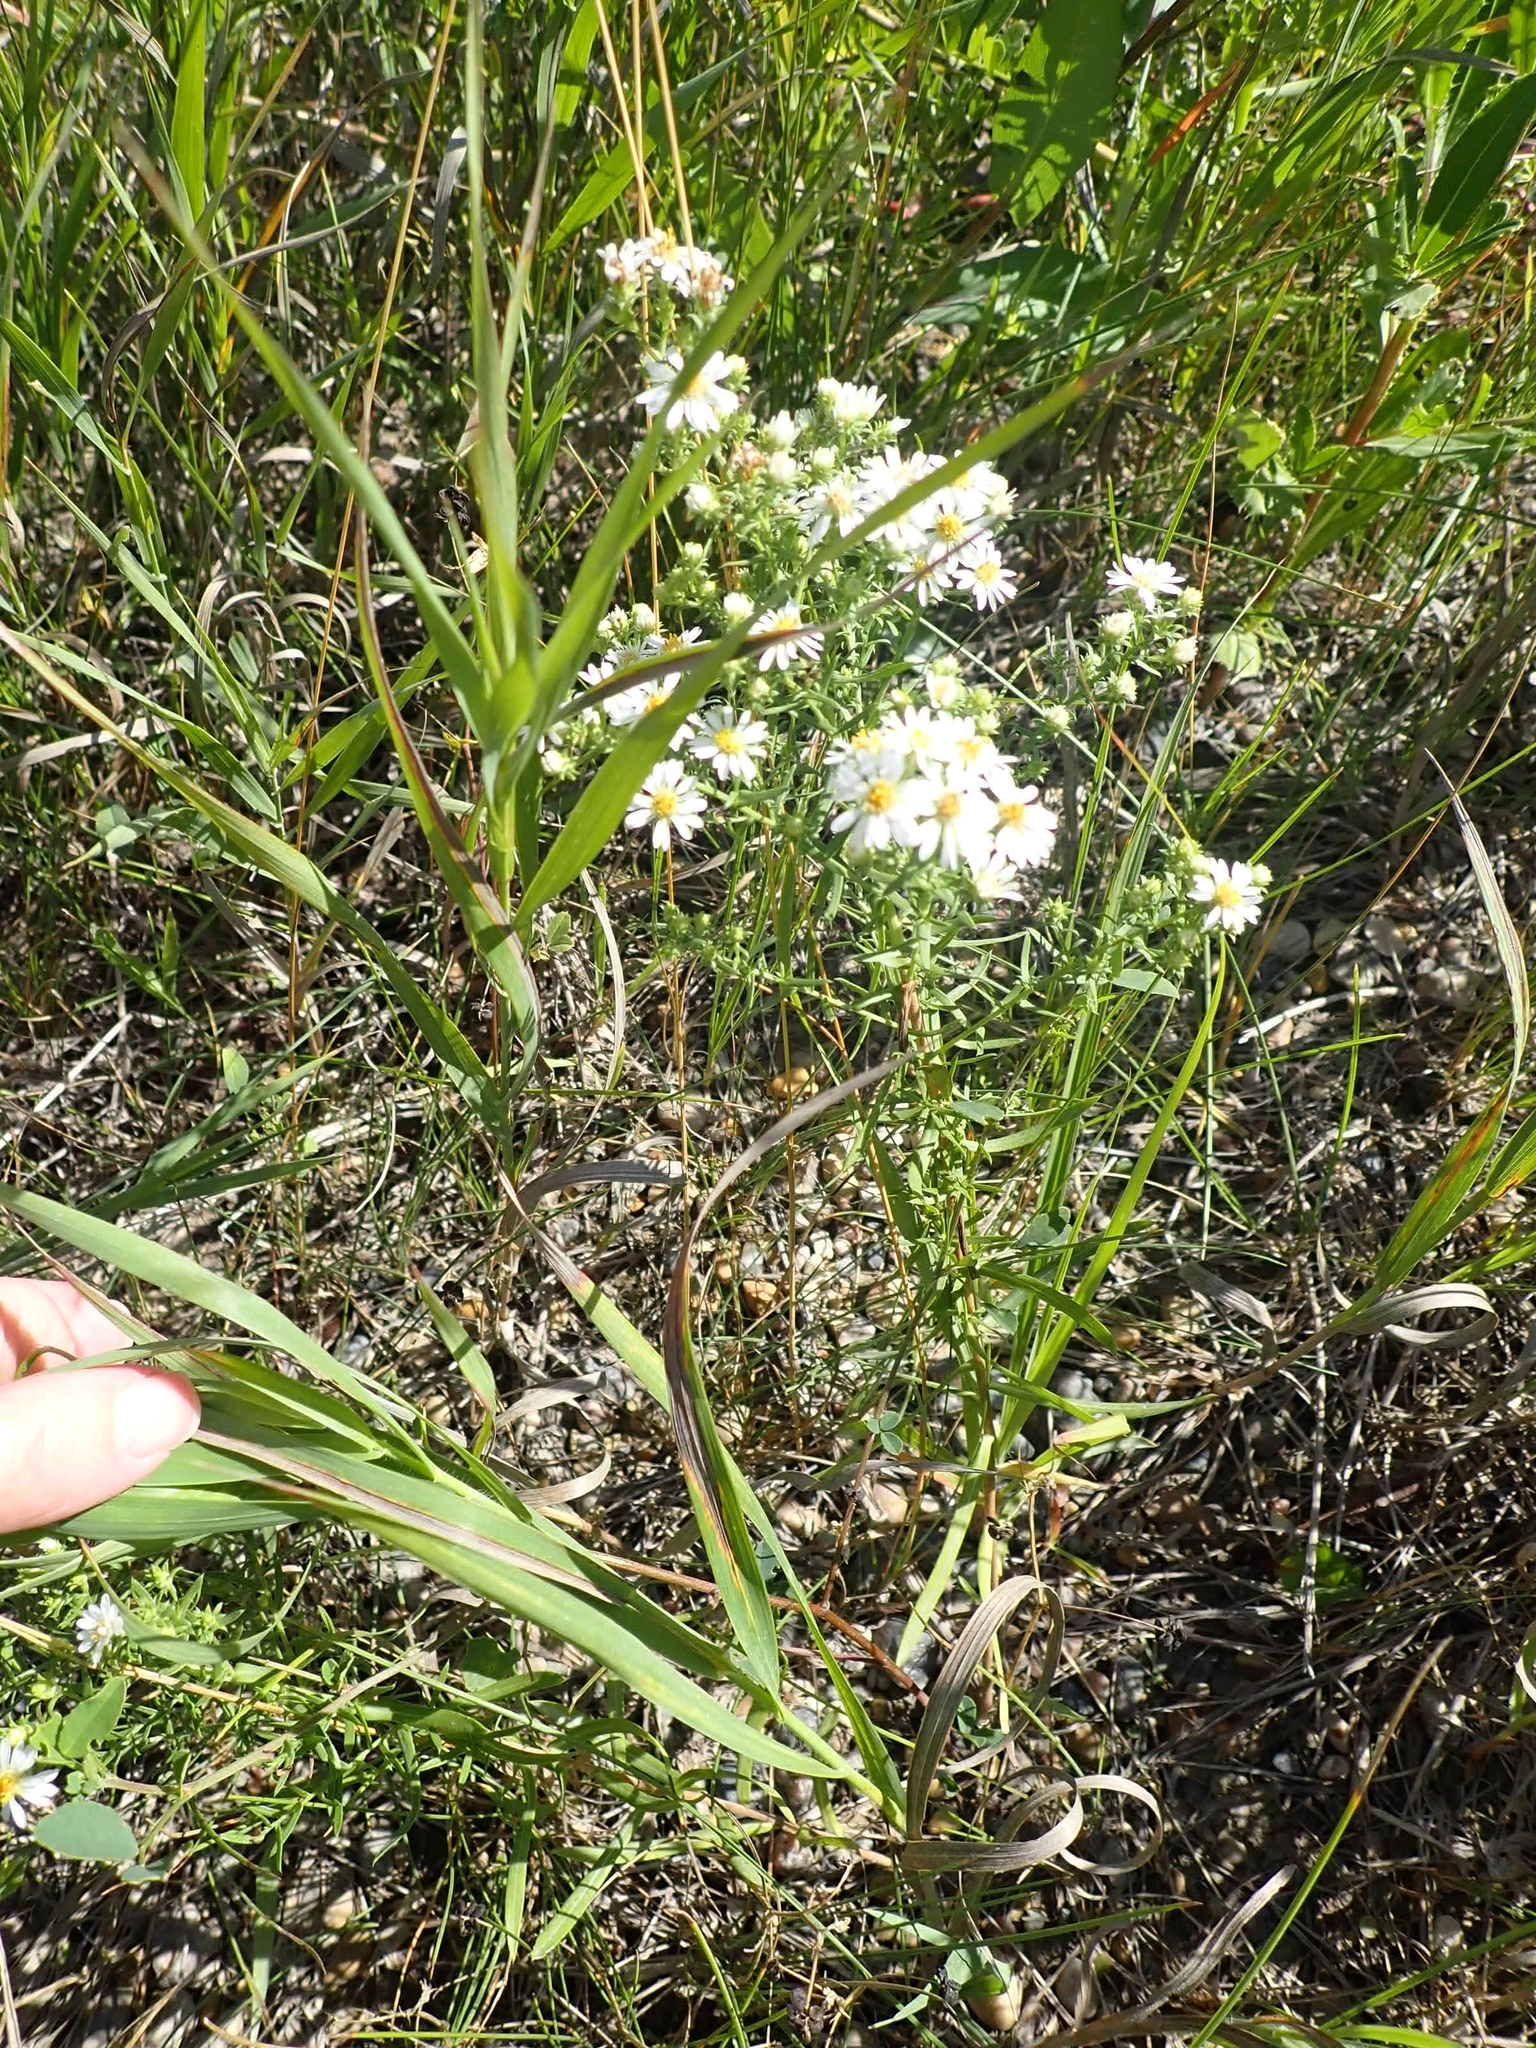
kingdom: Plantae
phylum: Tracheophyta
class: Magnoliopsida
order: Asterales
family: Asteraceae
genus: Symphyotrichum
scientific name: Symphyotrichum ericoides
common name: Heath aster
